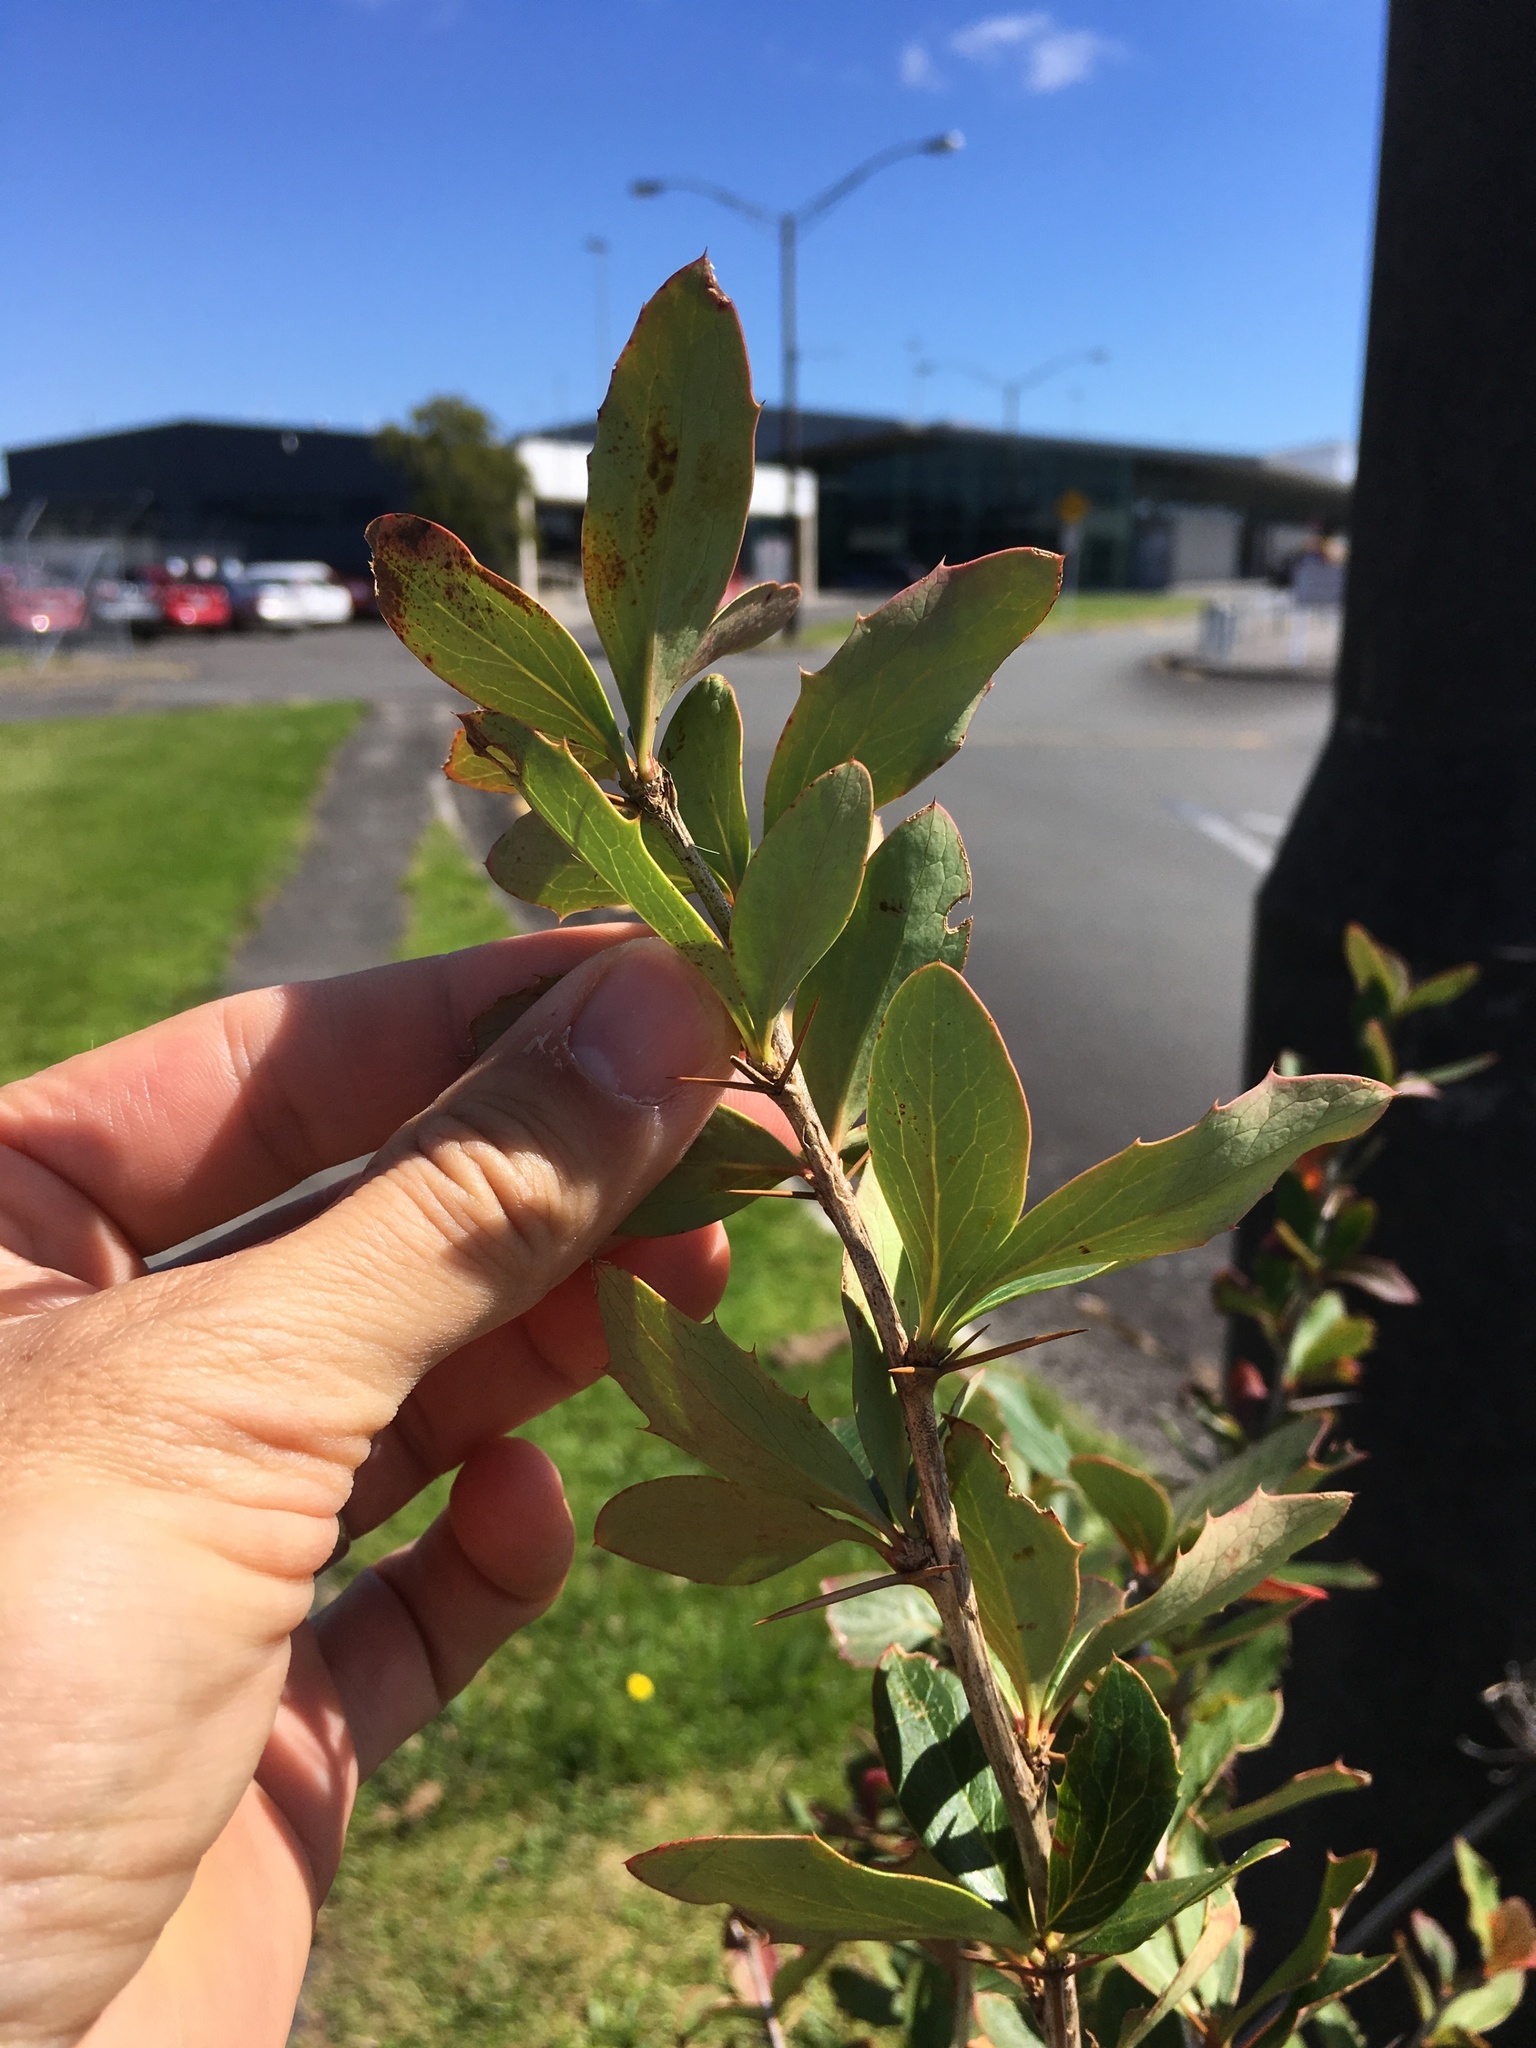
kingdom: Plantae
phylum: Tracheophyta
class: Magnoliopsida
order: Ranunculales
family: Berberidaceae
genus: Berberis
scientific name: Berberis glaucocarpa
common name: Great barberry
